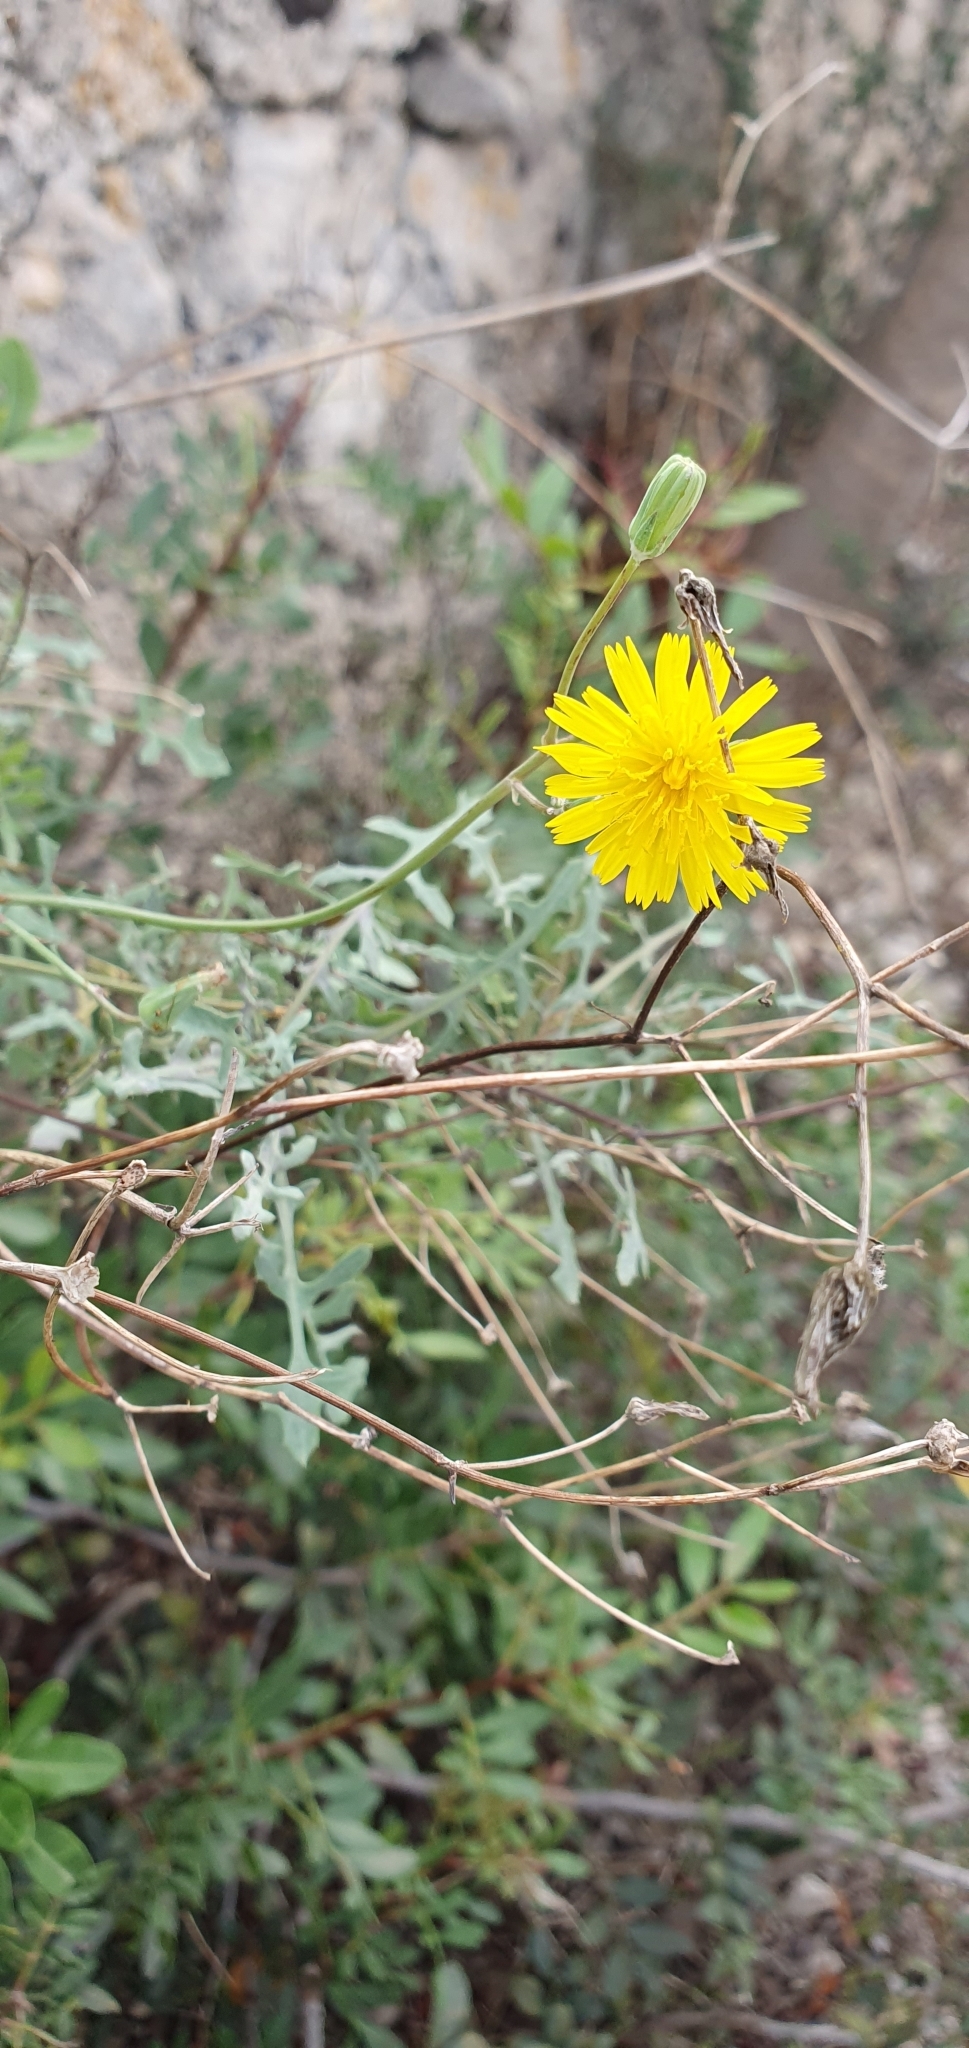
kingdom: Plantae
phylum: Tracheophyta
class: Magnoliopsida
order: Asterales
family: Asteraceae
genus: Sonchus
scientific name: Sonchus tenerrimus
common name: Clammy sowthistle
